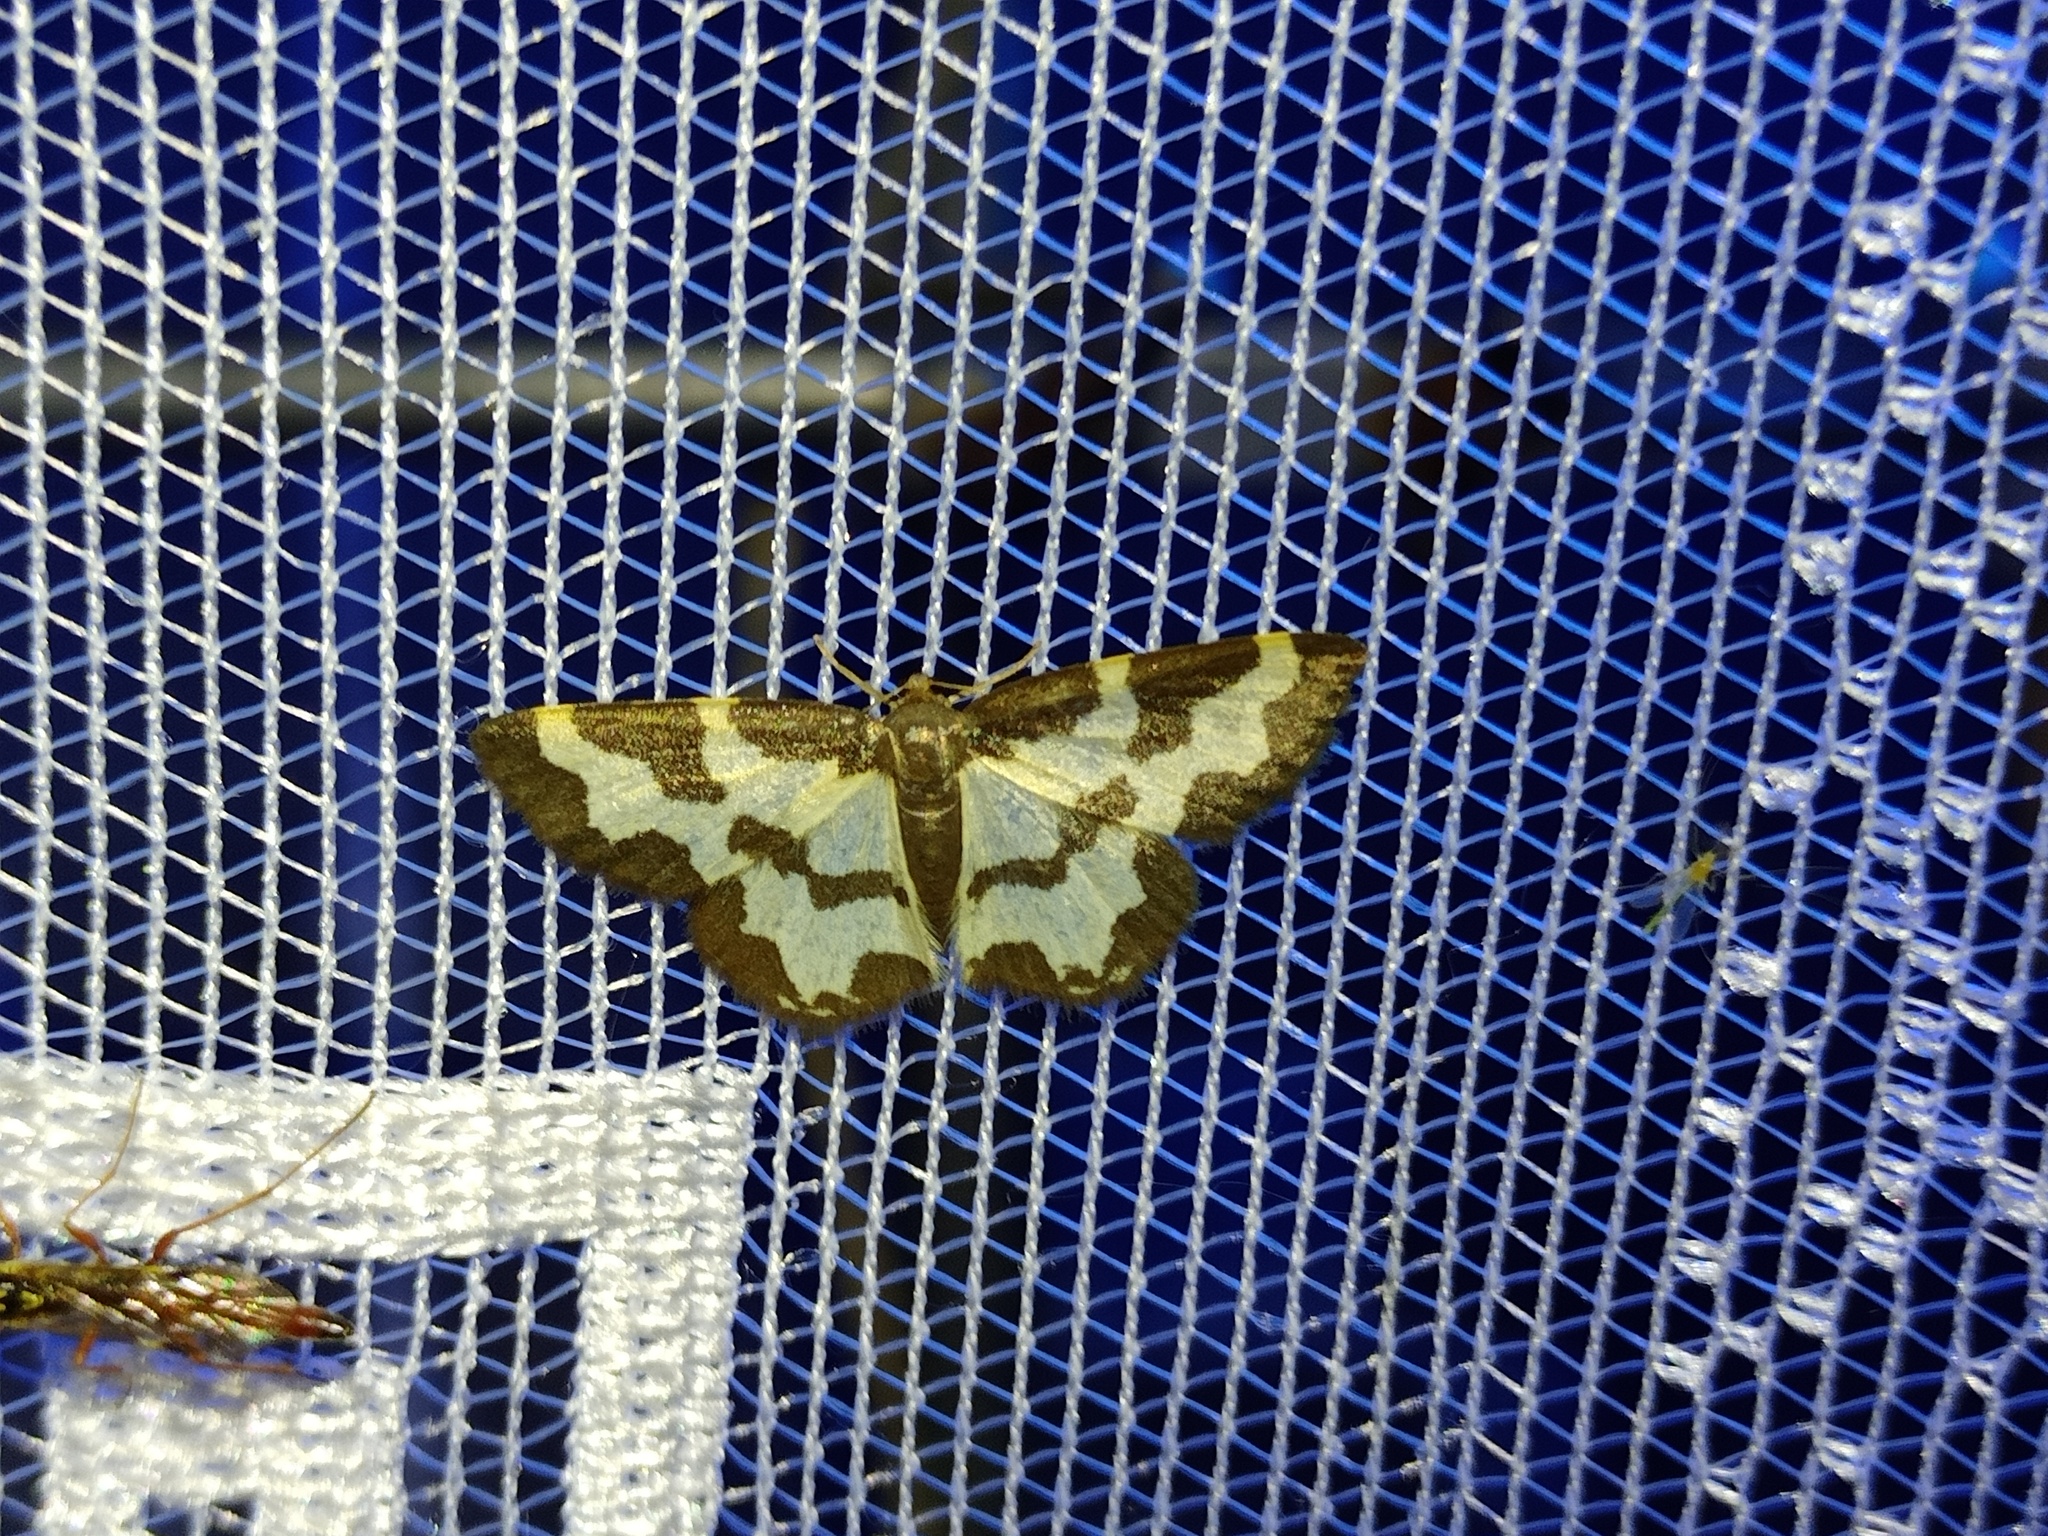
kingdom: Animalia
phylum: Arthropoda
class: Insecta
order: Lepidoptera
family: Geometridae
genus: Lomaspilis
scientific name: Lomaspilis marginata
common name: Clouded border
